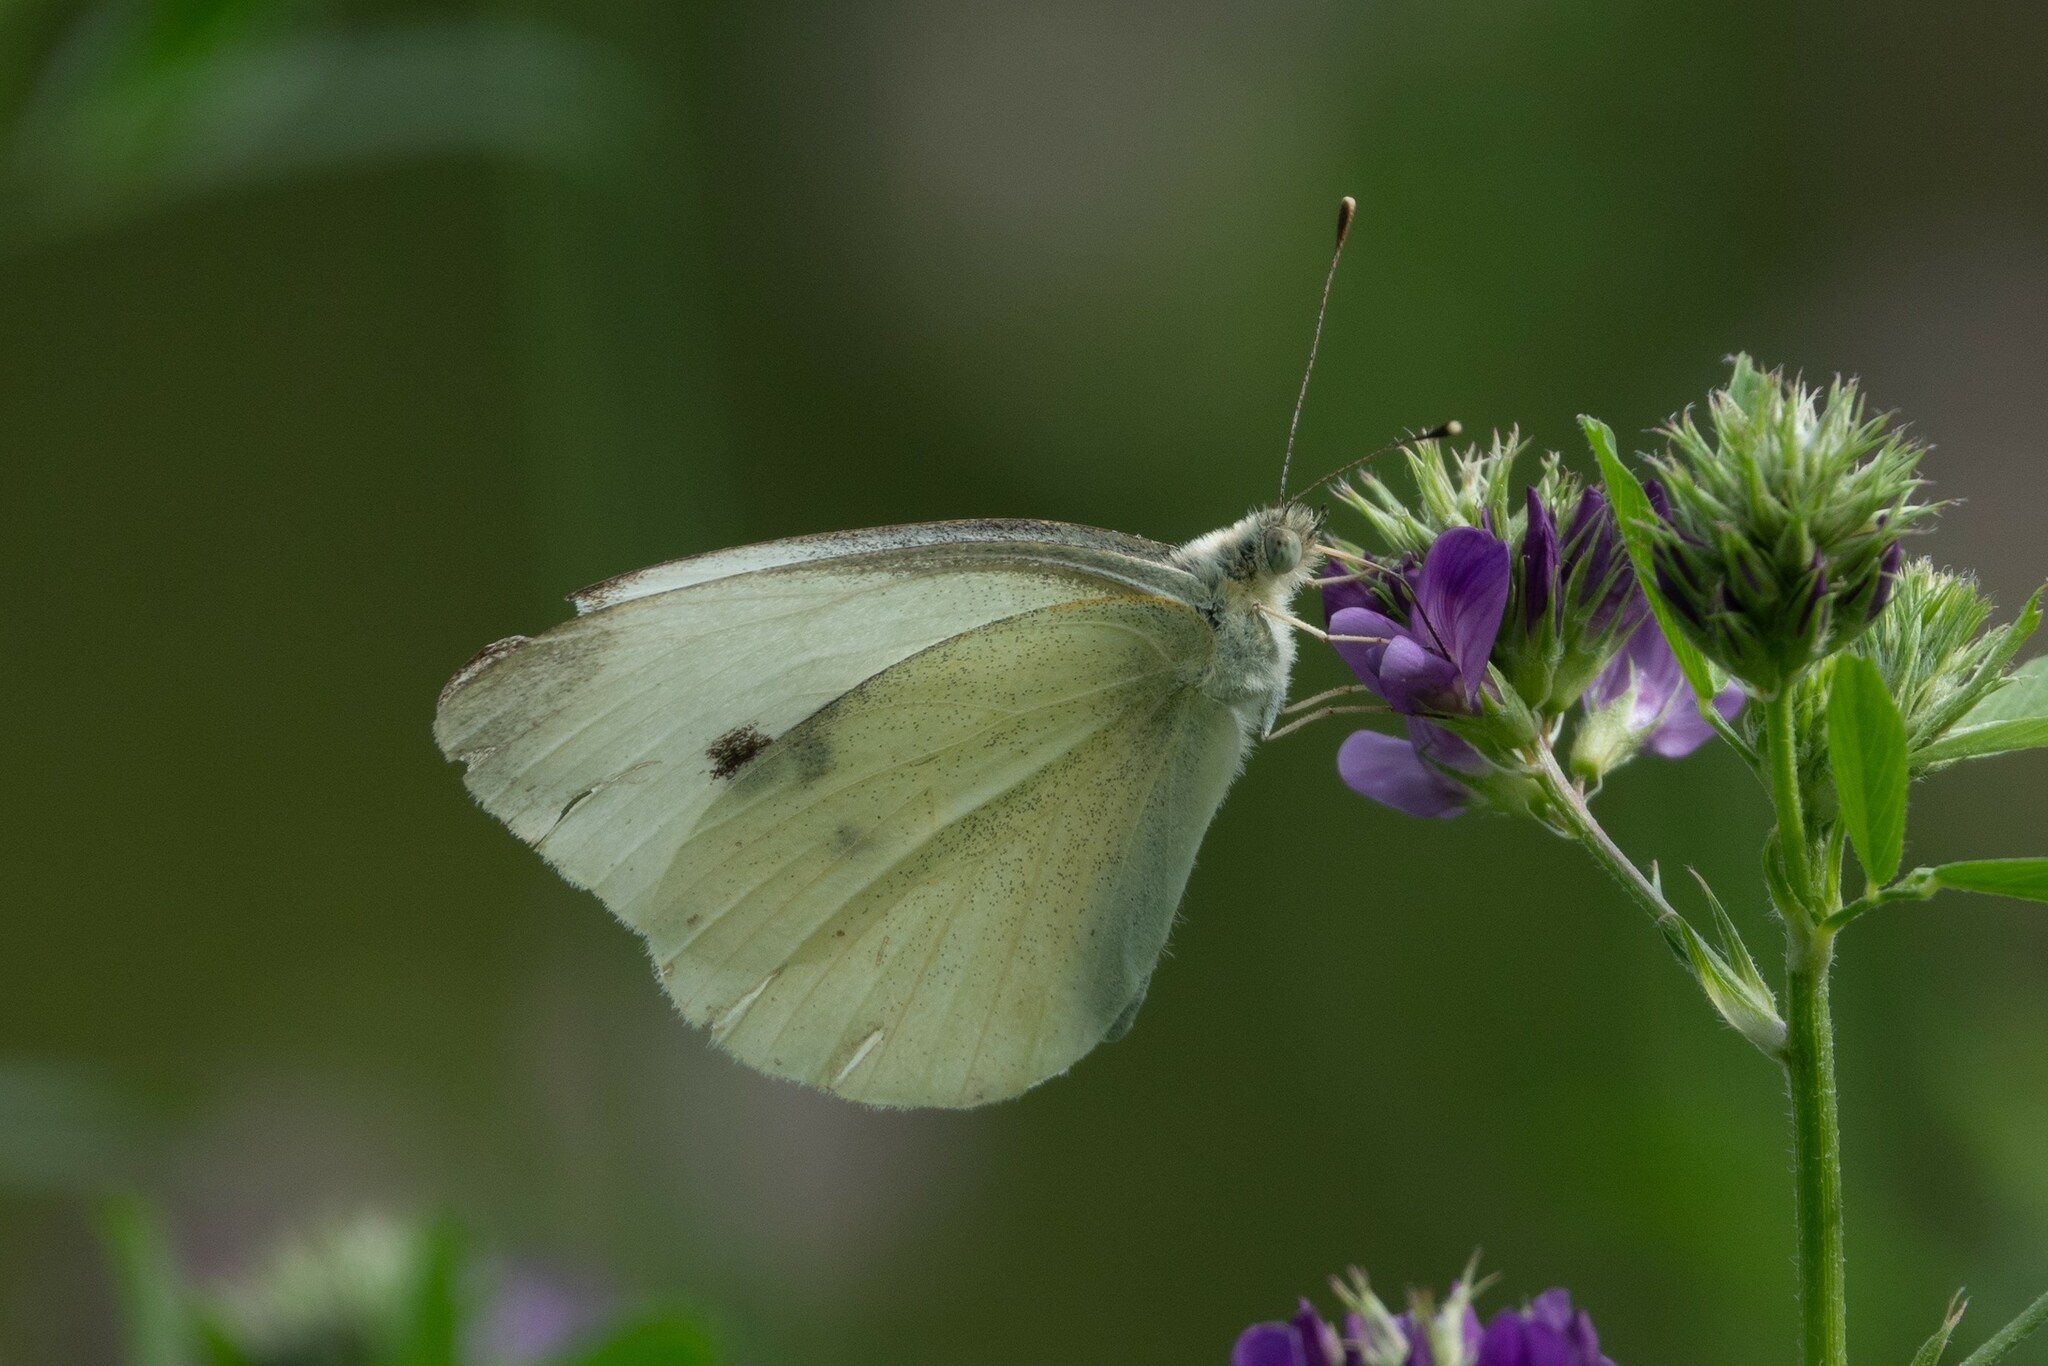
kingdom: Animalia
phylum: Arthropoda
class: Insecta
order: Lepidoptera
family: Pieridae
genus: Pieris
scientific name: Pieris rapae
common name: Small white
